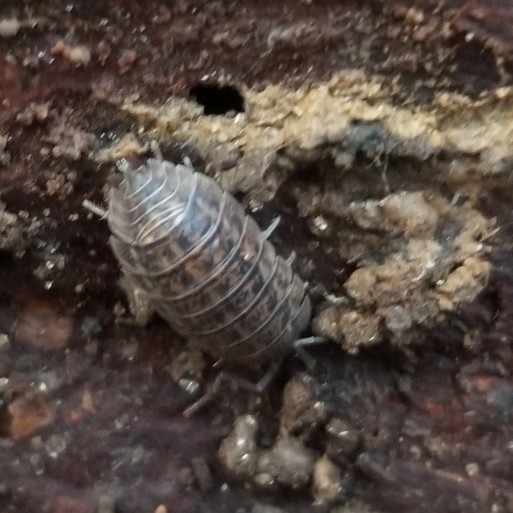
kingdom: Animalia
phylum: Arthropoda
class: Malacostraca
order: Isopoda
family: Trachelipodidae
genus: Trachelipus
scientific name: Trachelipus rathkii
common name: Isopod
